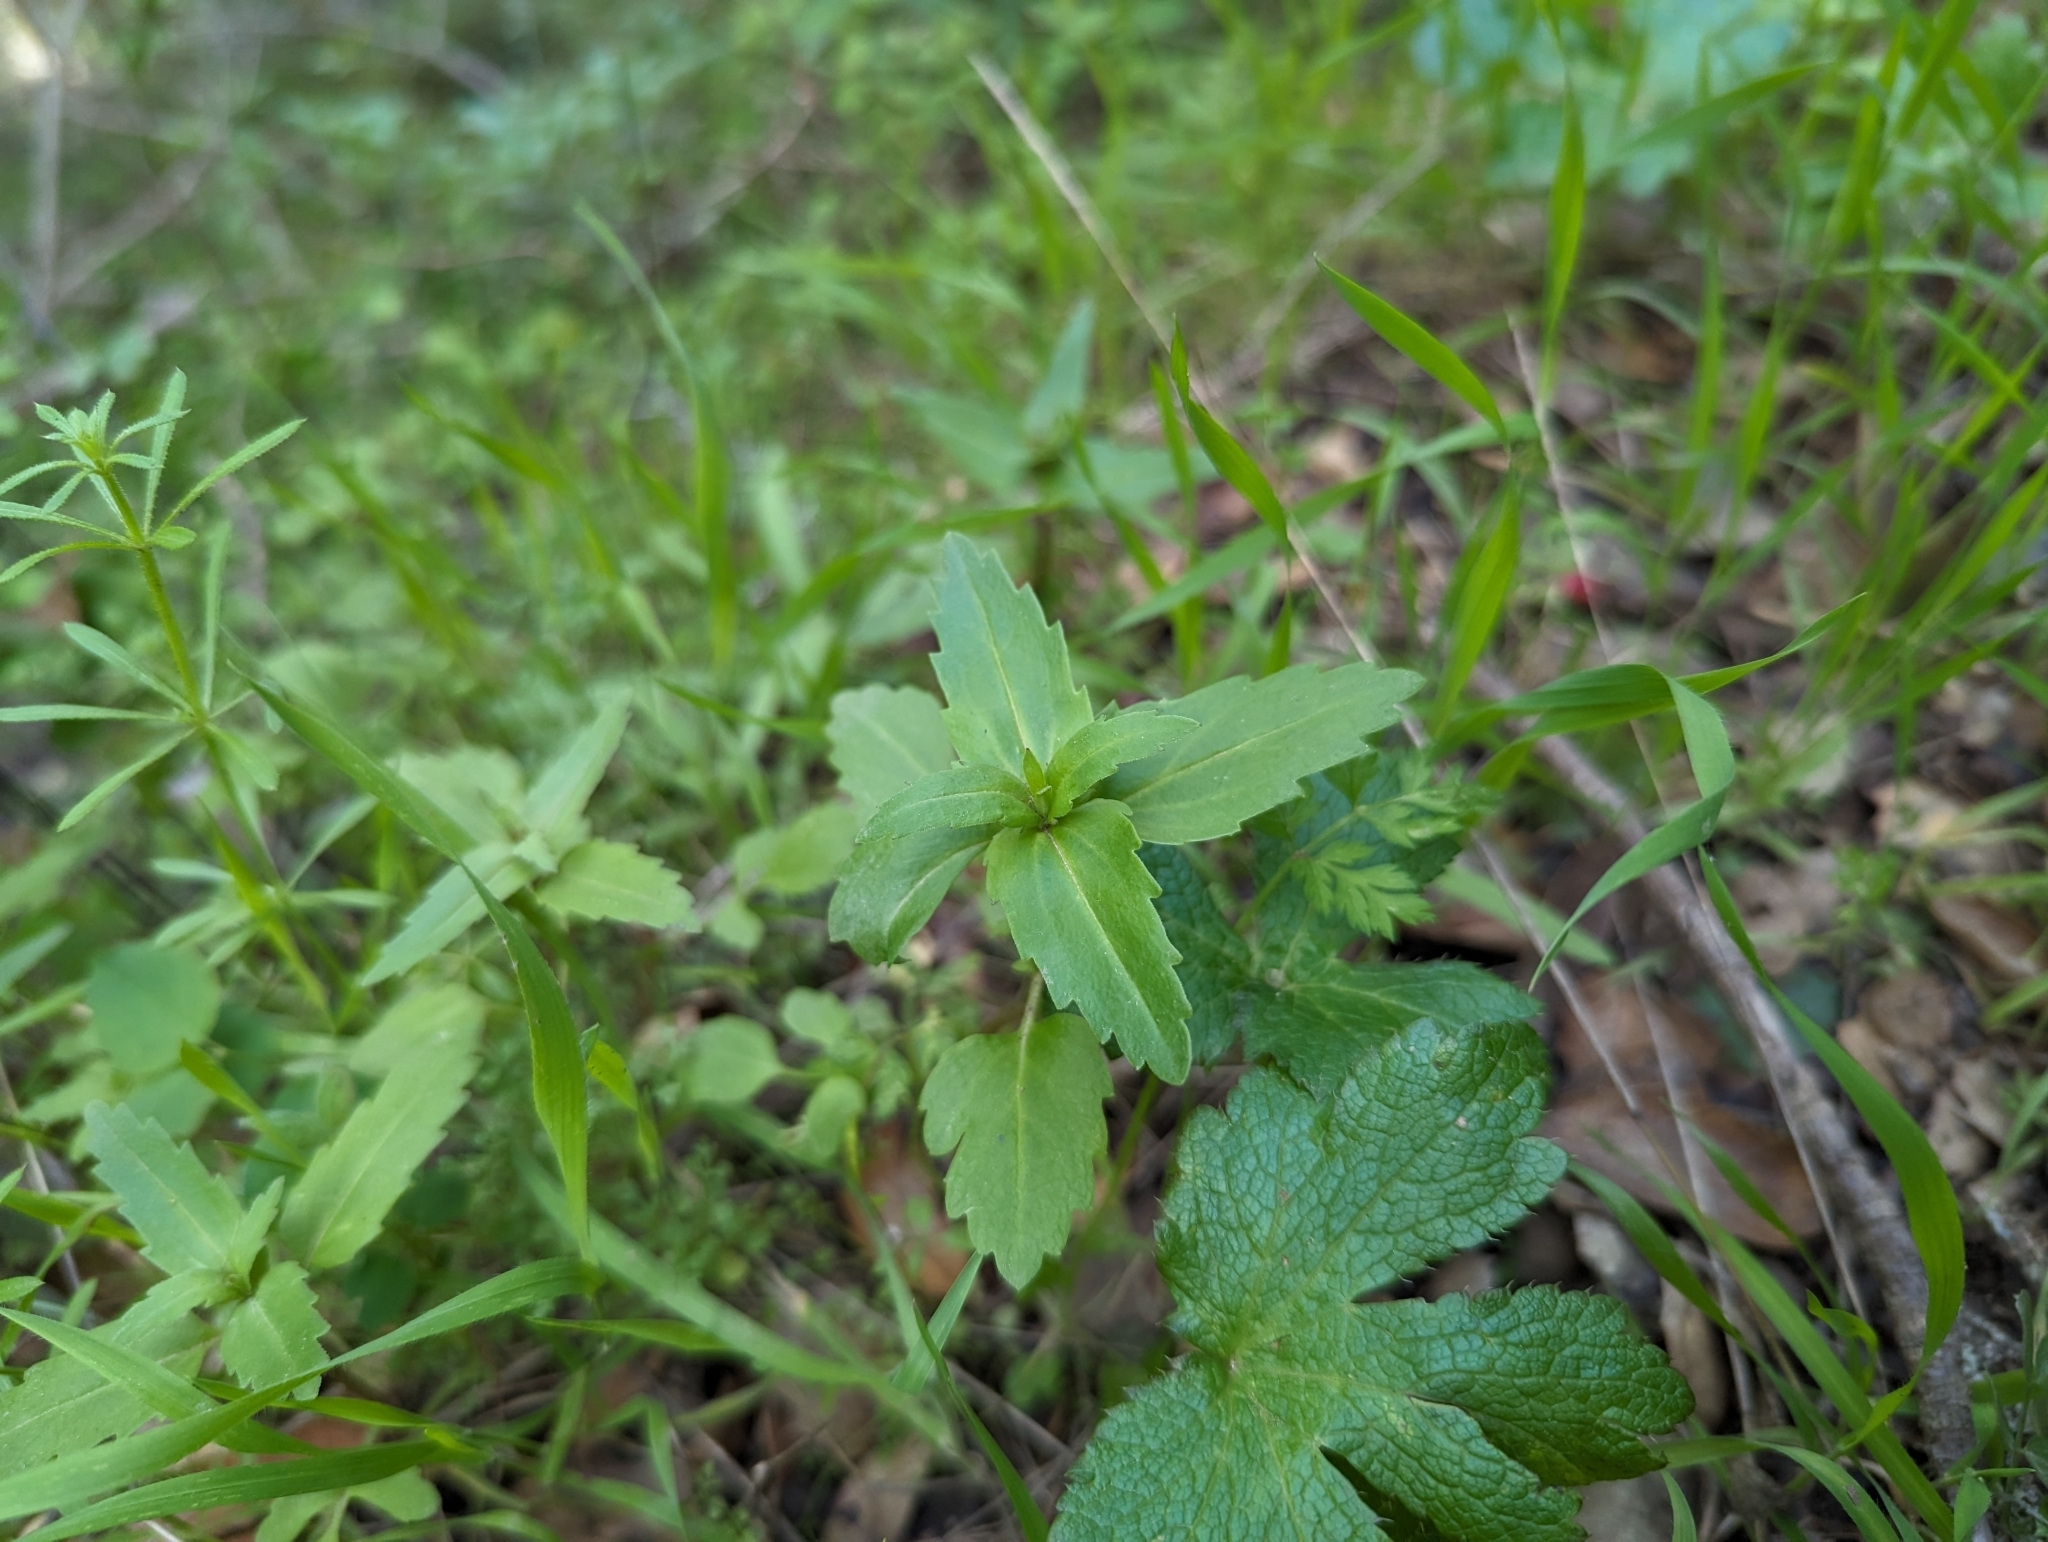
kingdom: Plantae
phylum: Tracheophyta
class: Magnoliopsida
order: Lamiales
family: Plantaginaceae
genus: Collinsia
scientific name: Collinsia multicolor
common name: San francisco collinsia
